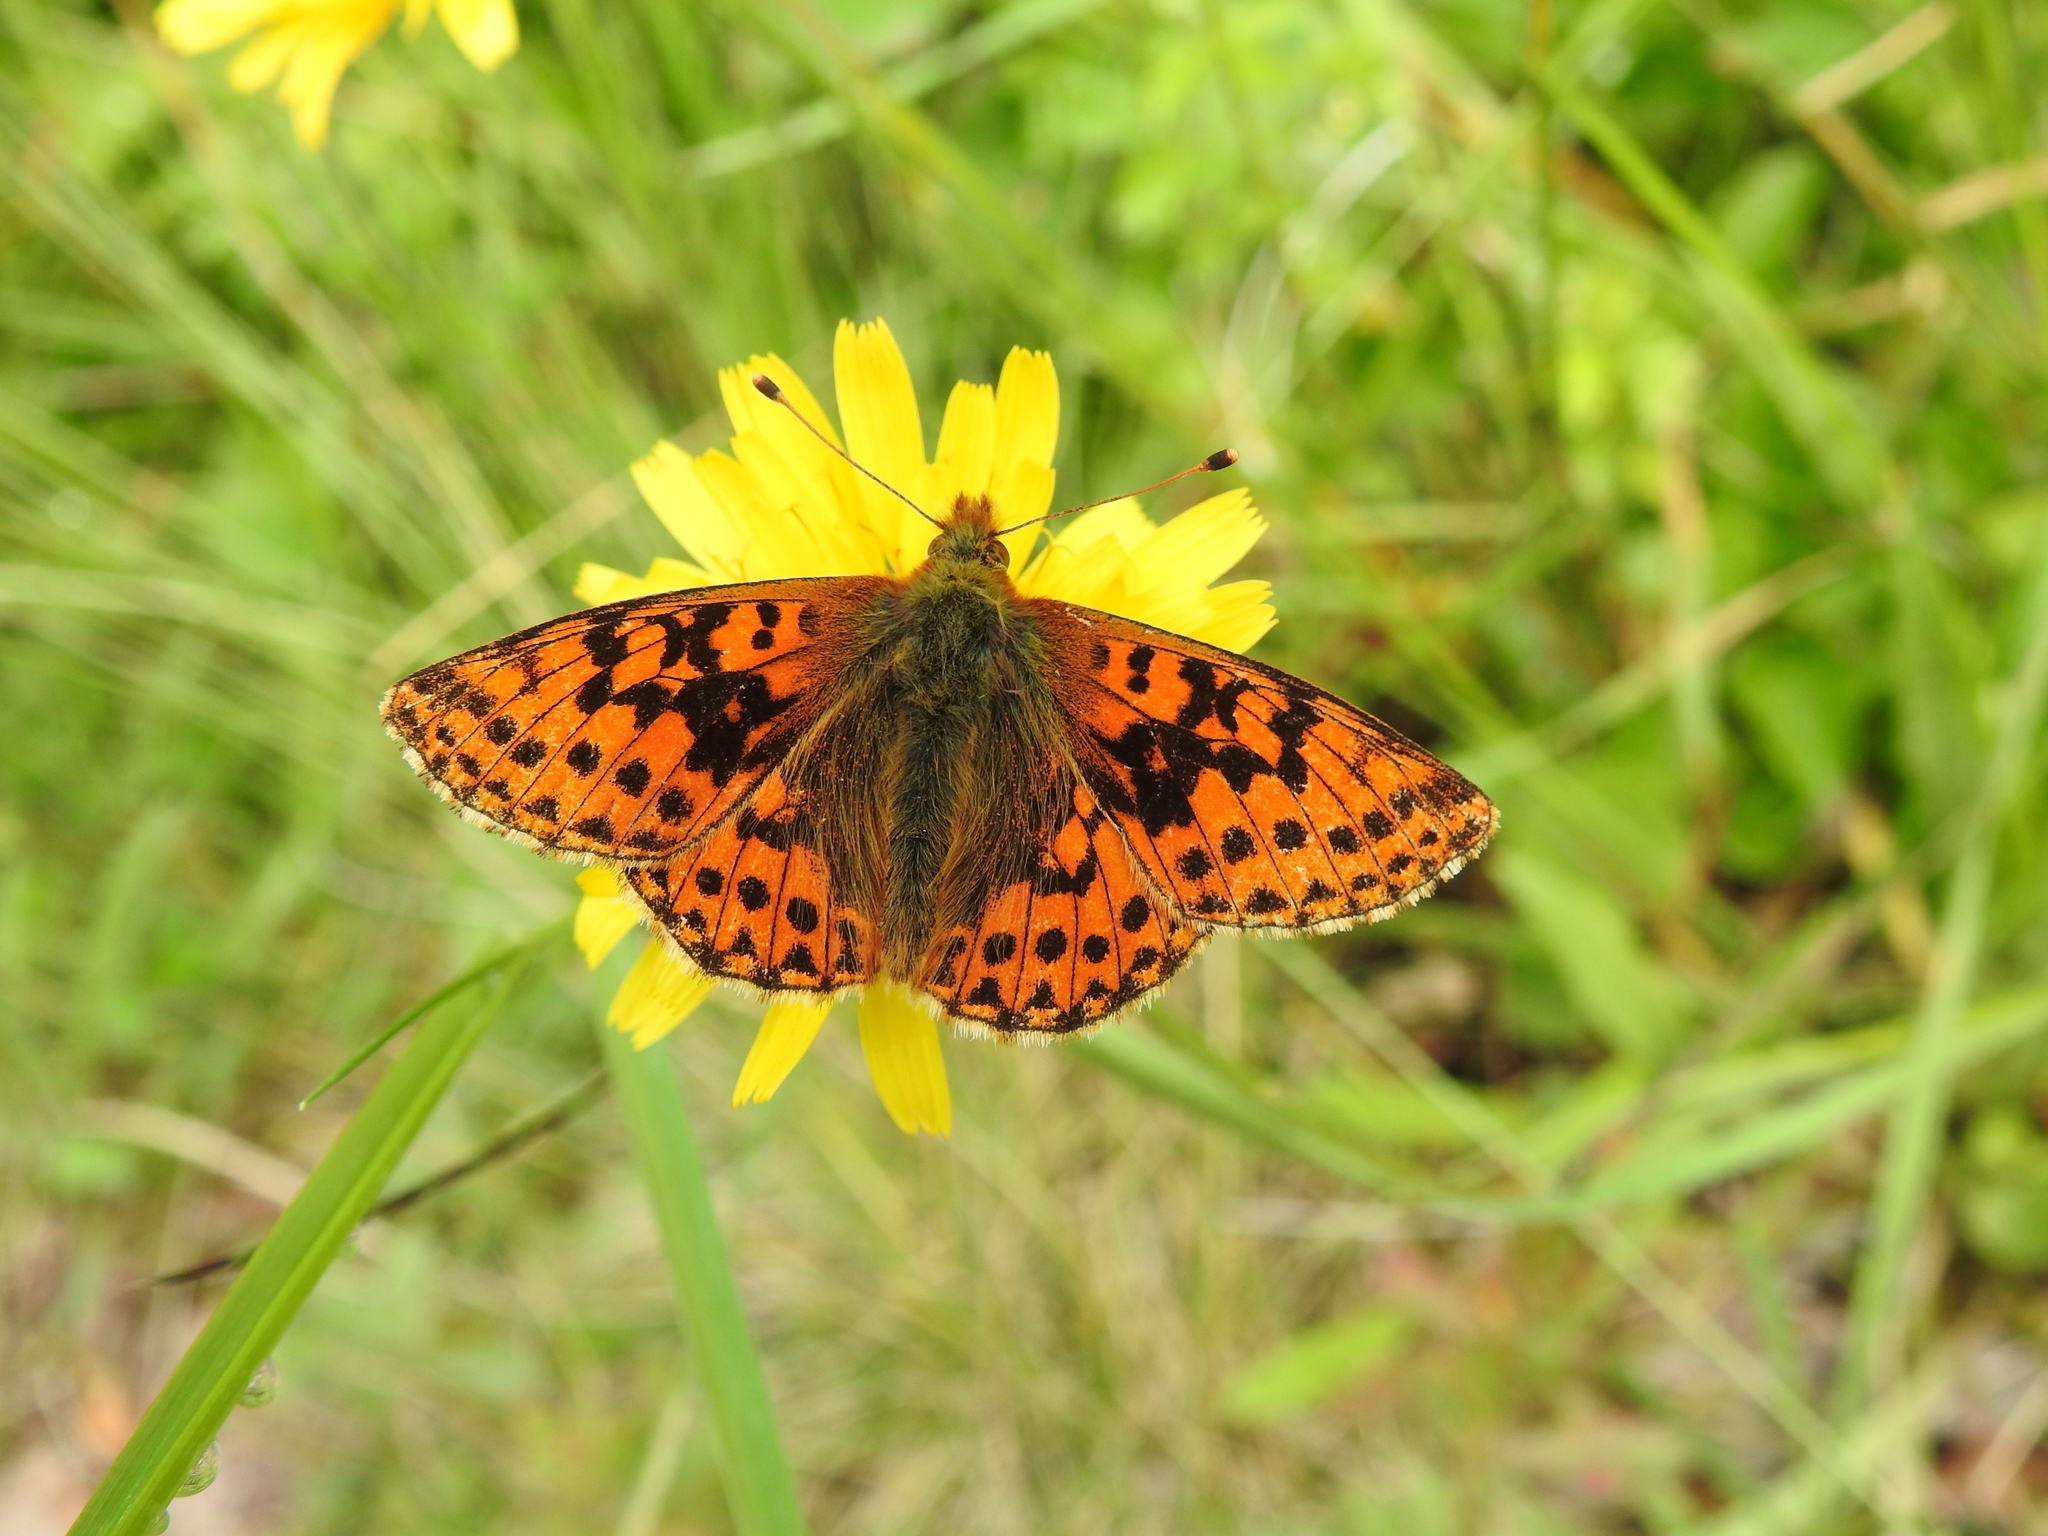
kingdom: Animalia
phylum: Arthropoda
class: Insecta
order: Lepidoptera
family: Nymphalidae
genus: Boloria
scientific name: Boloria aquilonaris
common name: Cranberry fritillary
